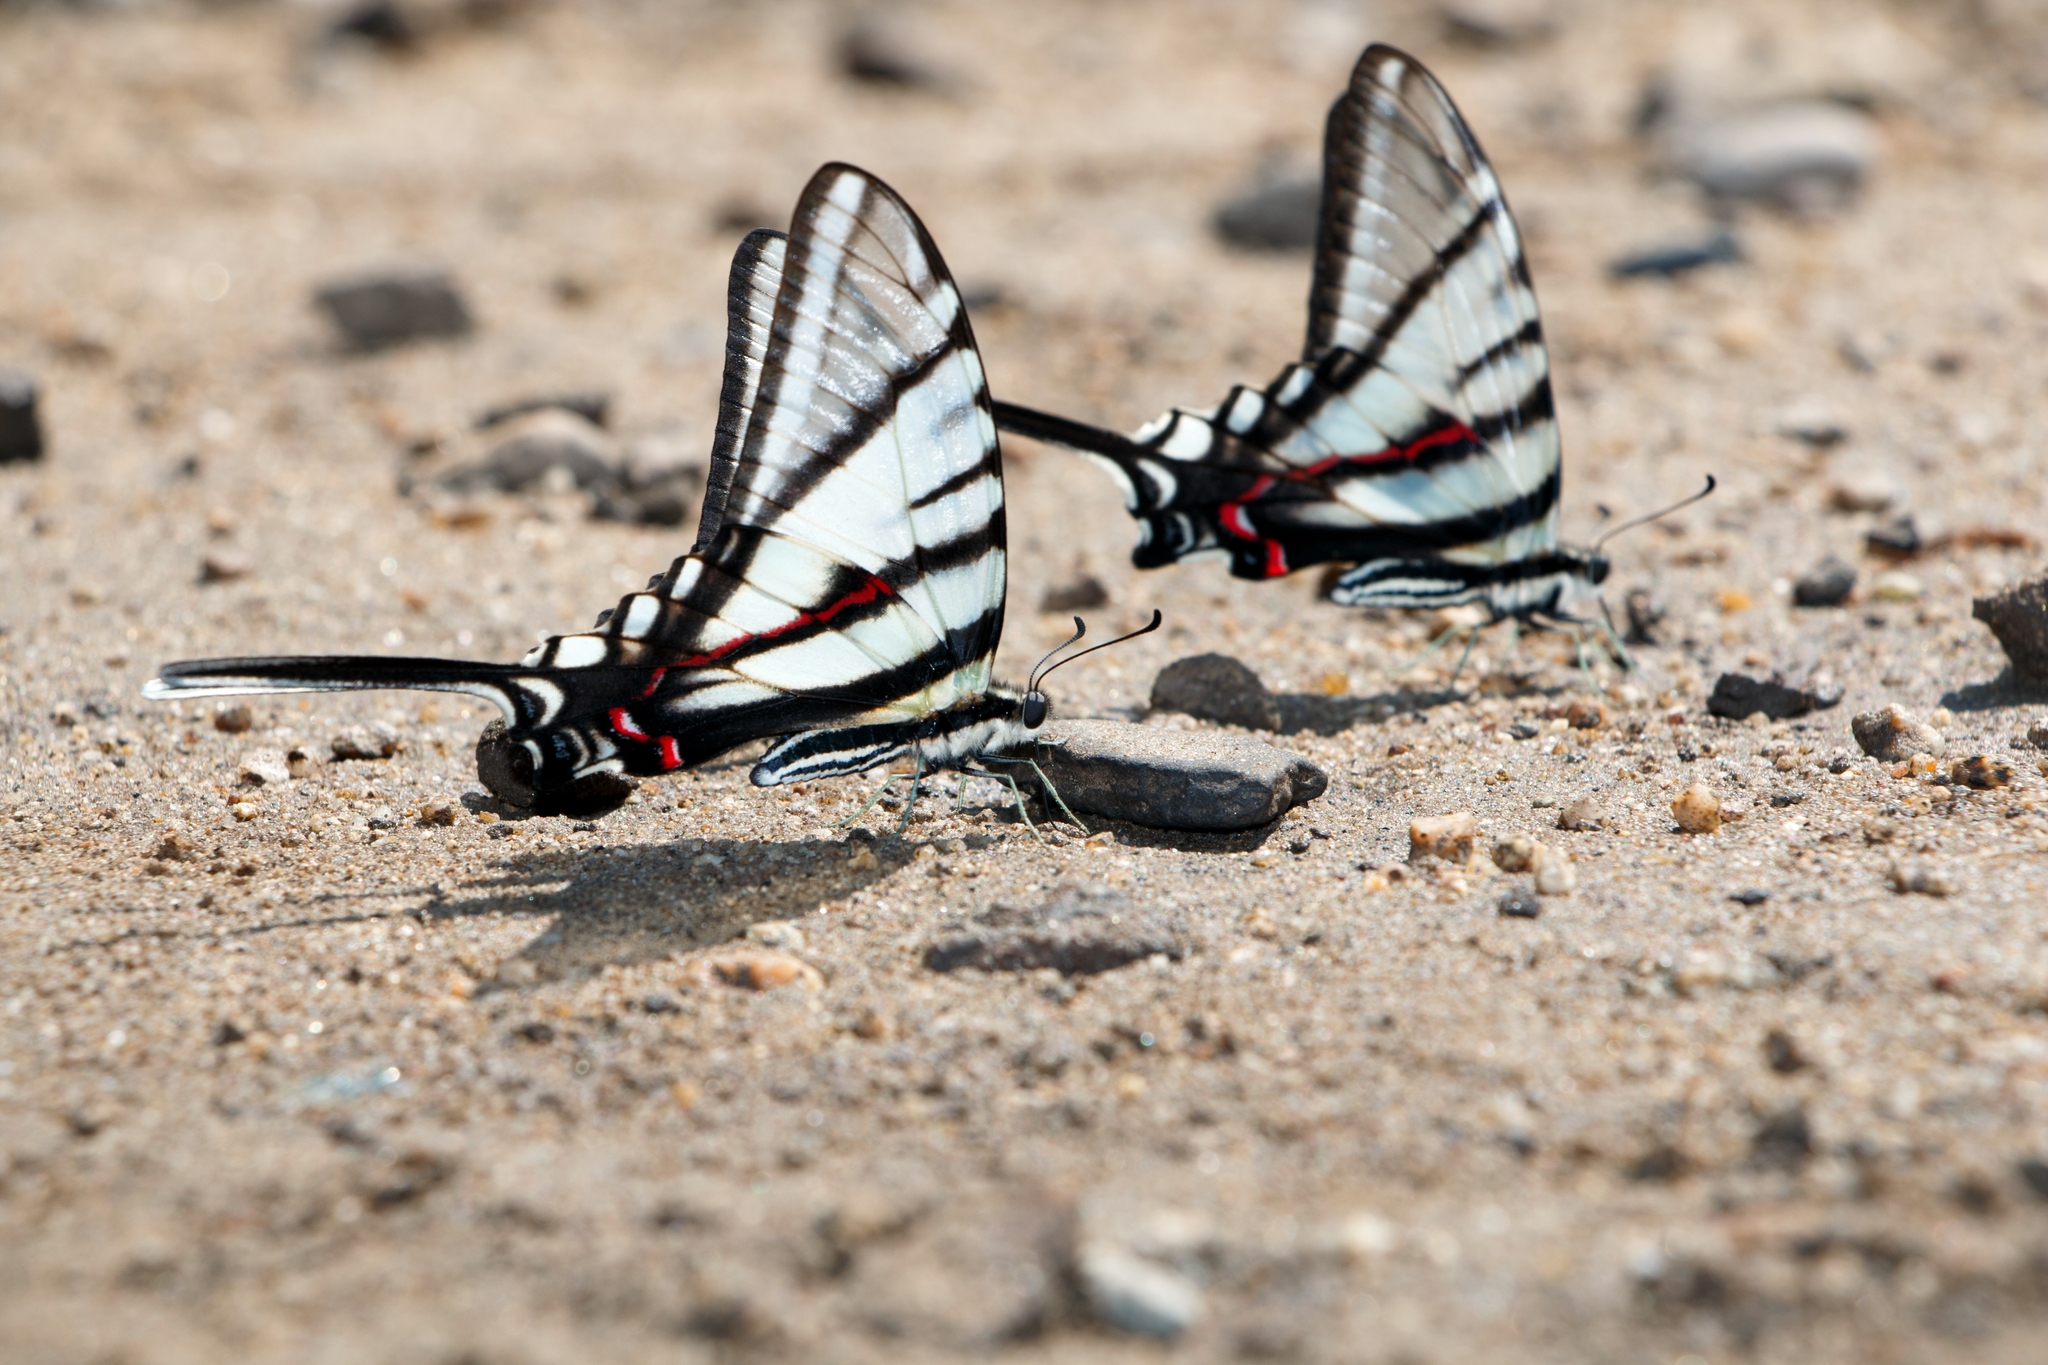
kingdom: Animalia
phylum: Arthropoda
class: Insecta
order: Lepidoptera
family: Papilionidae
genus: Protographium
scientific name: Protographium epidaus
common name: Mexican kite swallowtail
